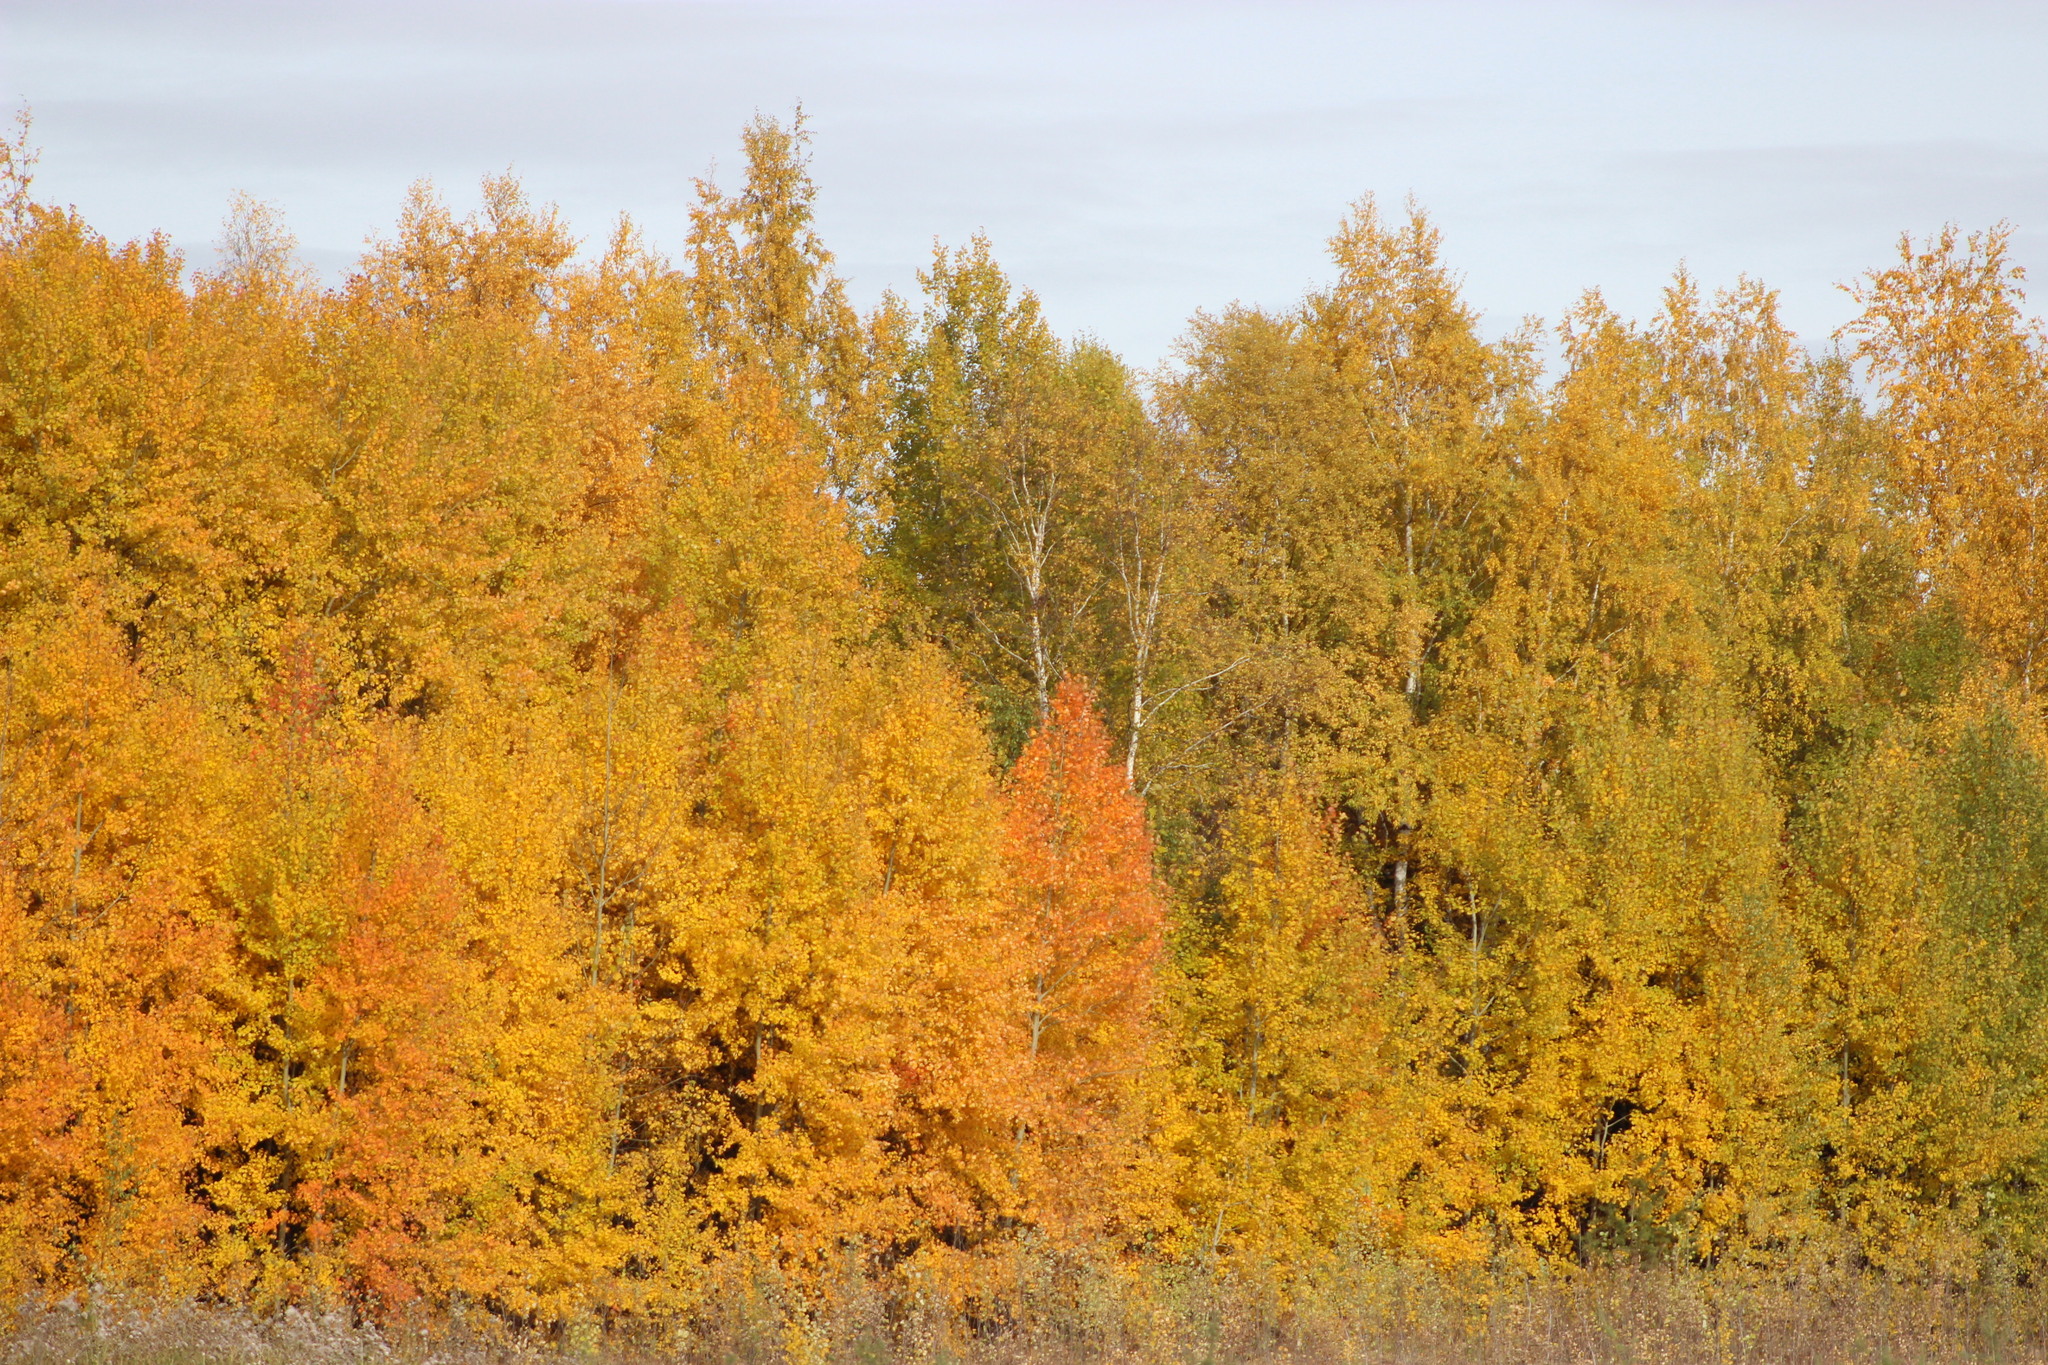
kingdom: Plantae
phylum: Tracheophyta
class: Magnoliopsida
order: Malpighiales
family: Salicaceae
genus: Populus
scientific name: Populus tremula
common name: European aspen
